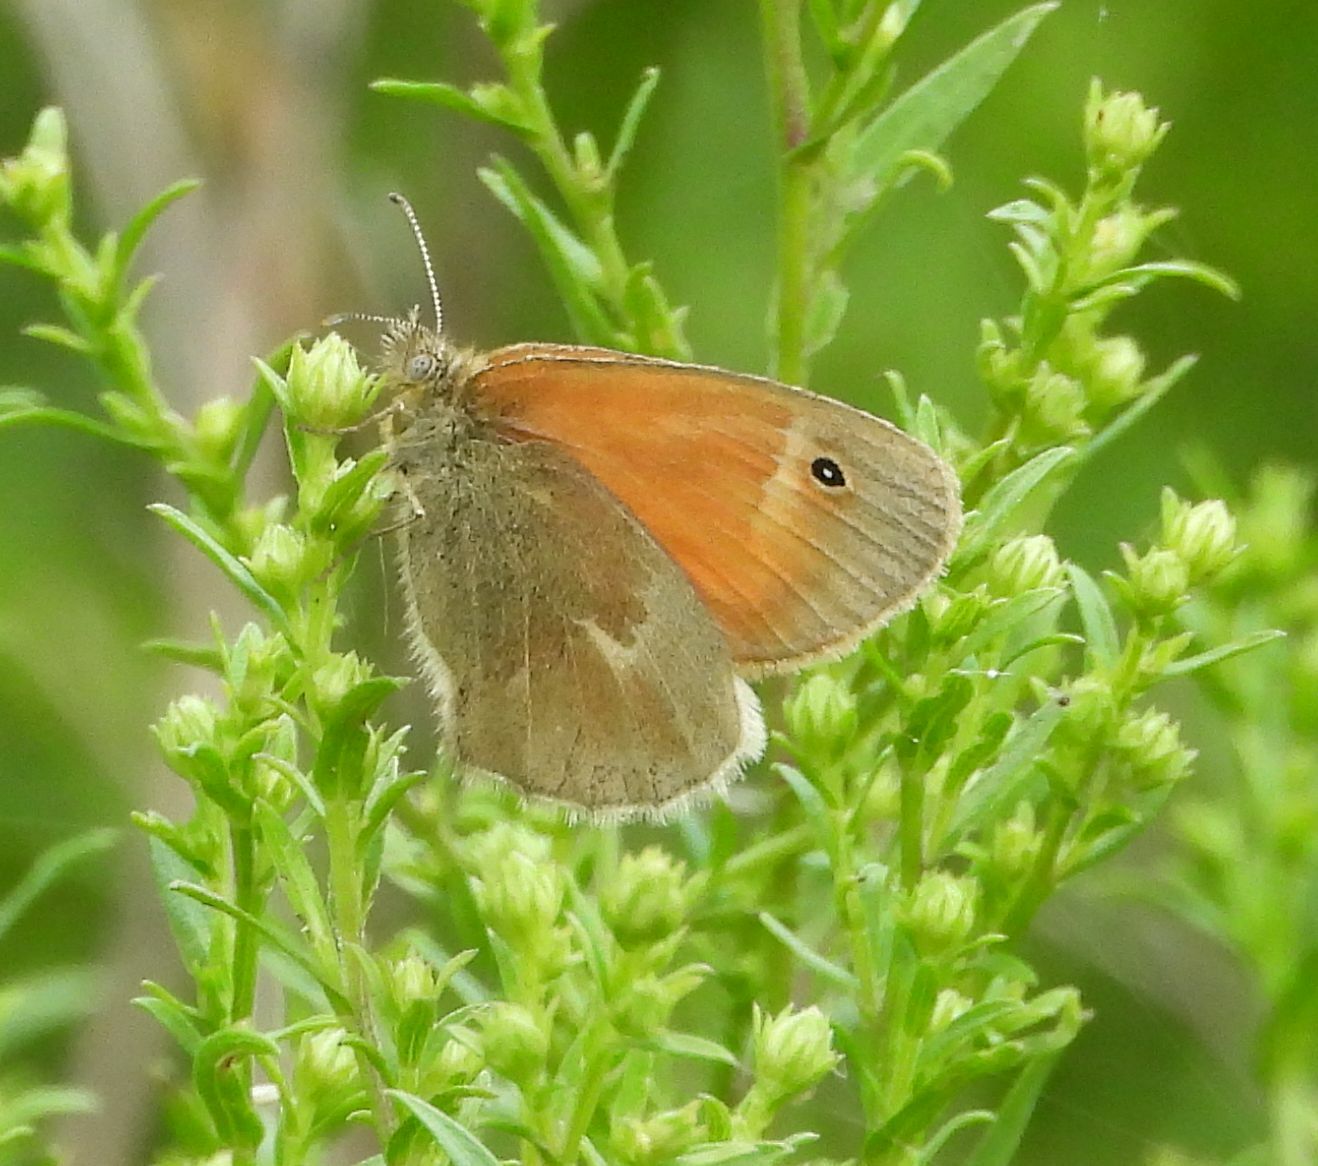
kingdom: Animalia
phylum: Arthropoda
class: Insecta
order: Lepidoptera
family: Nymphalidae
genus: Coenonympha
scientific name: Coenonympha california
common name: Common ringlet
